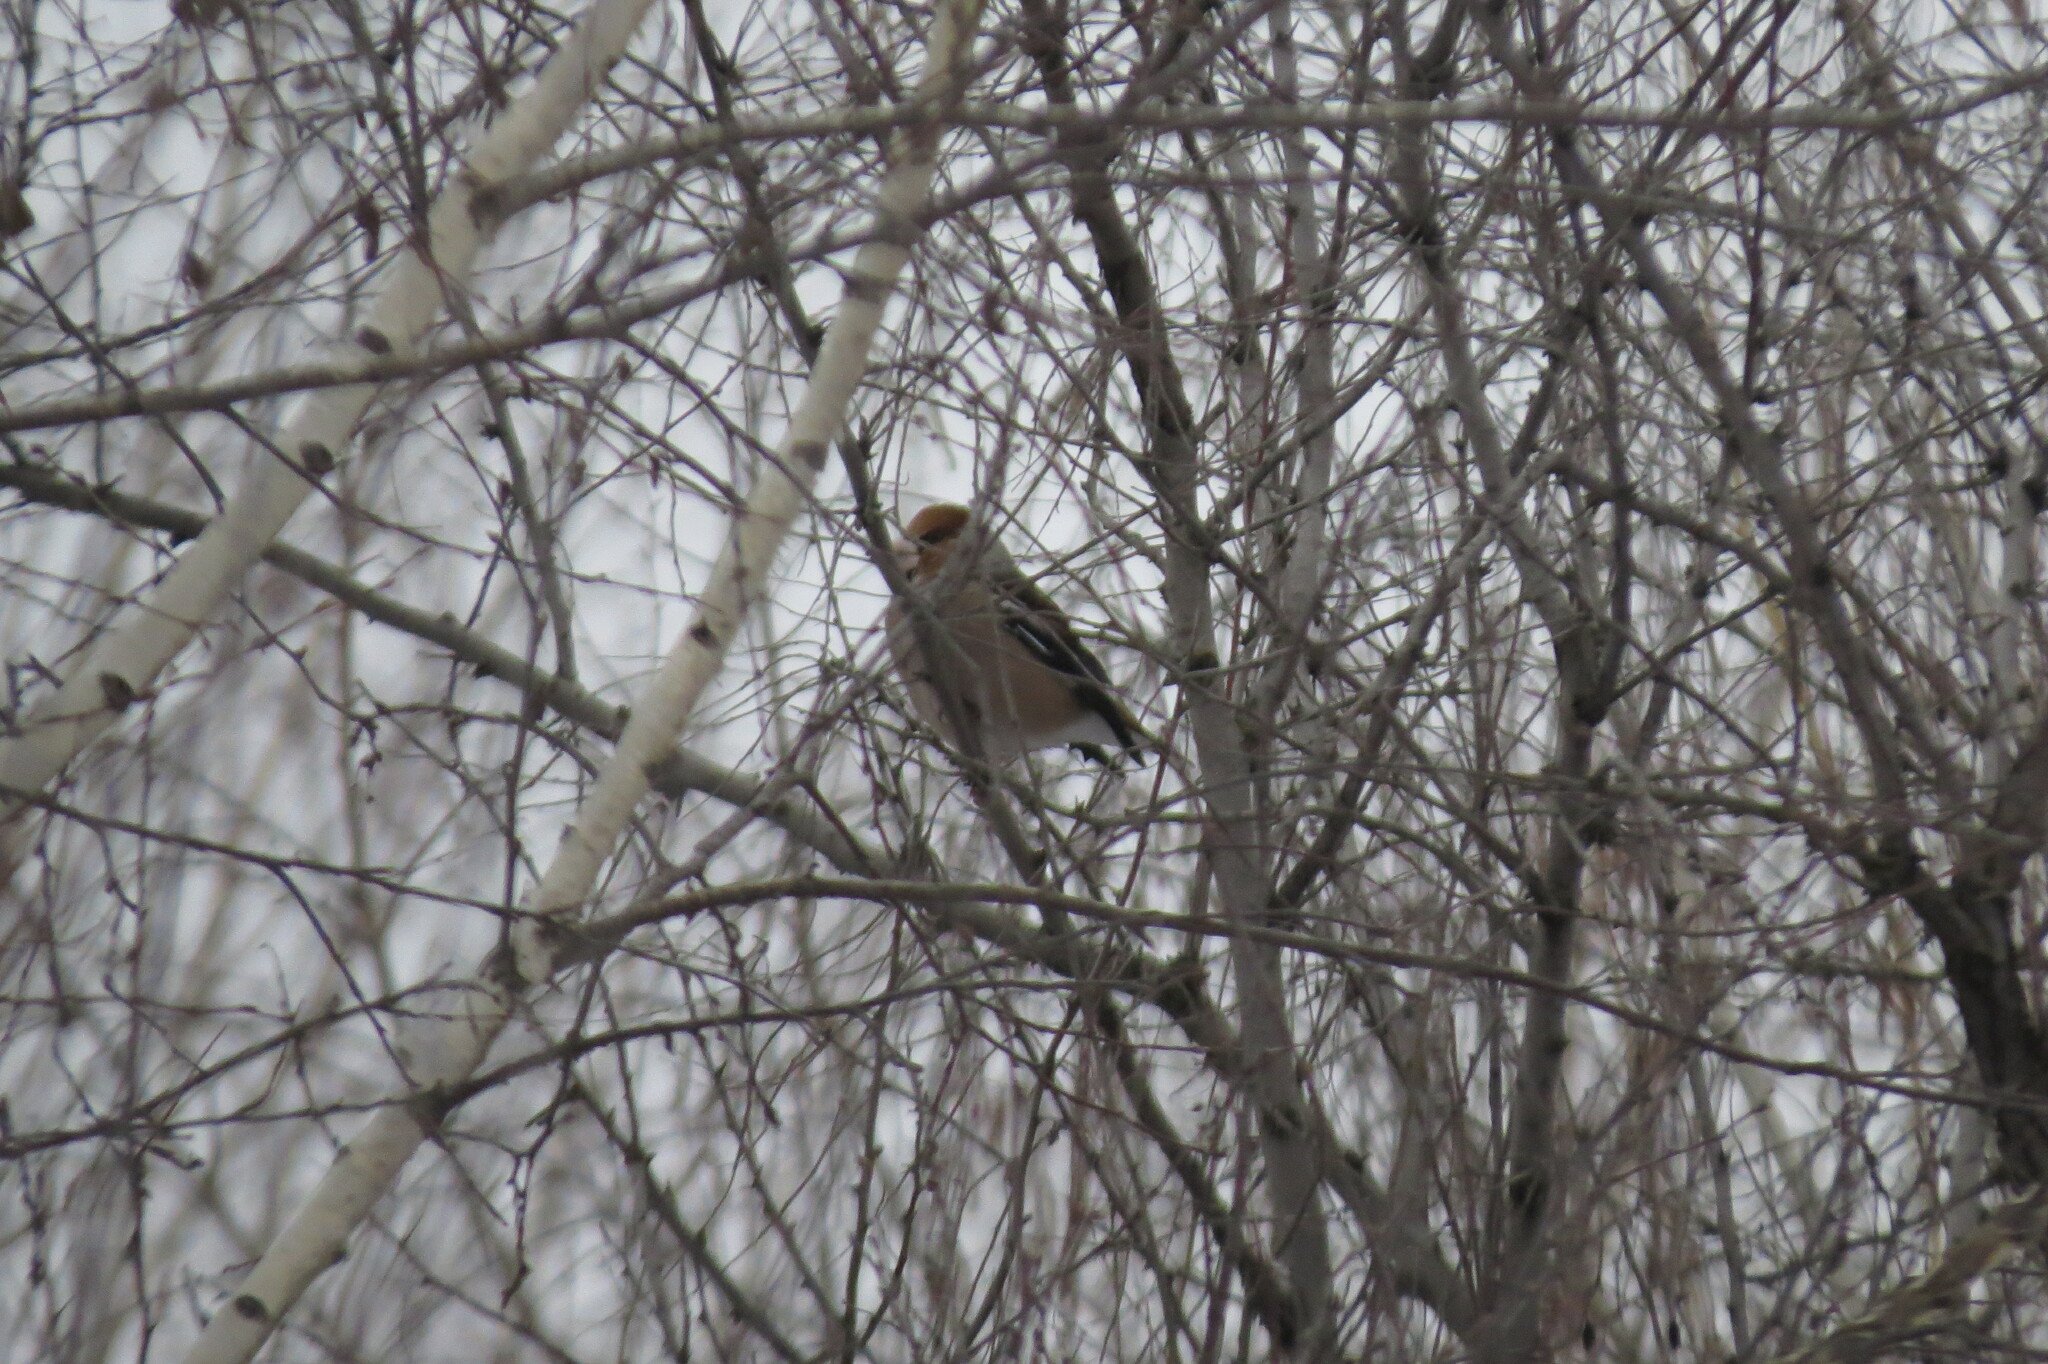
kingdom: Animalia
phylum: Chordata
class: Aves
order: Passeriformes
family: Fringillidae
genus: Coccothraustes
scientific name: Coccothraustes coccothraustes
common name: Hawfinch
